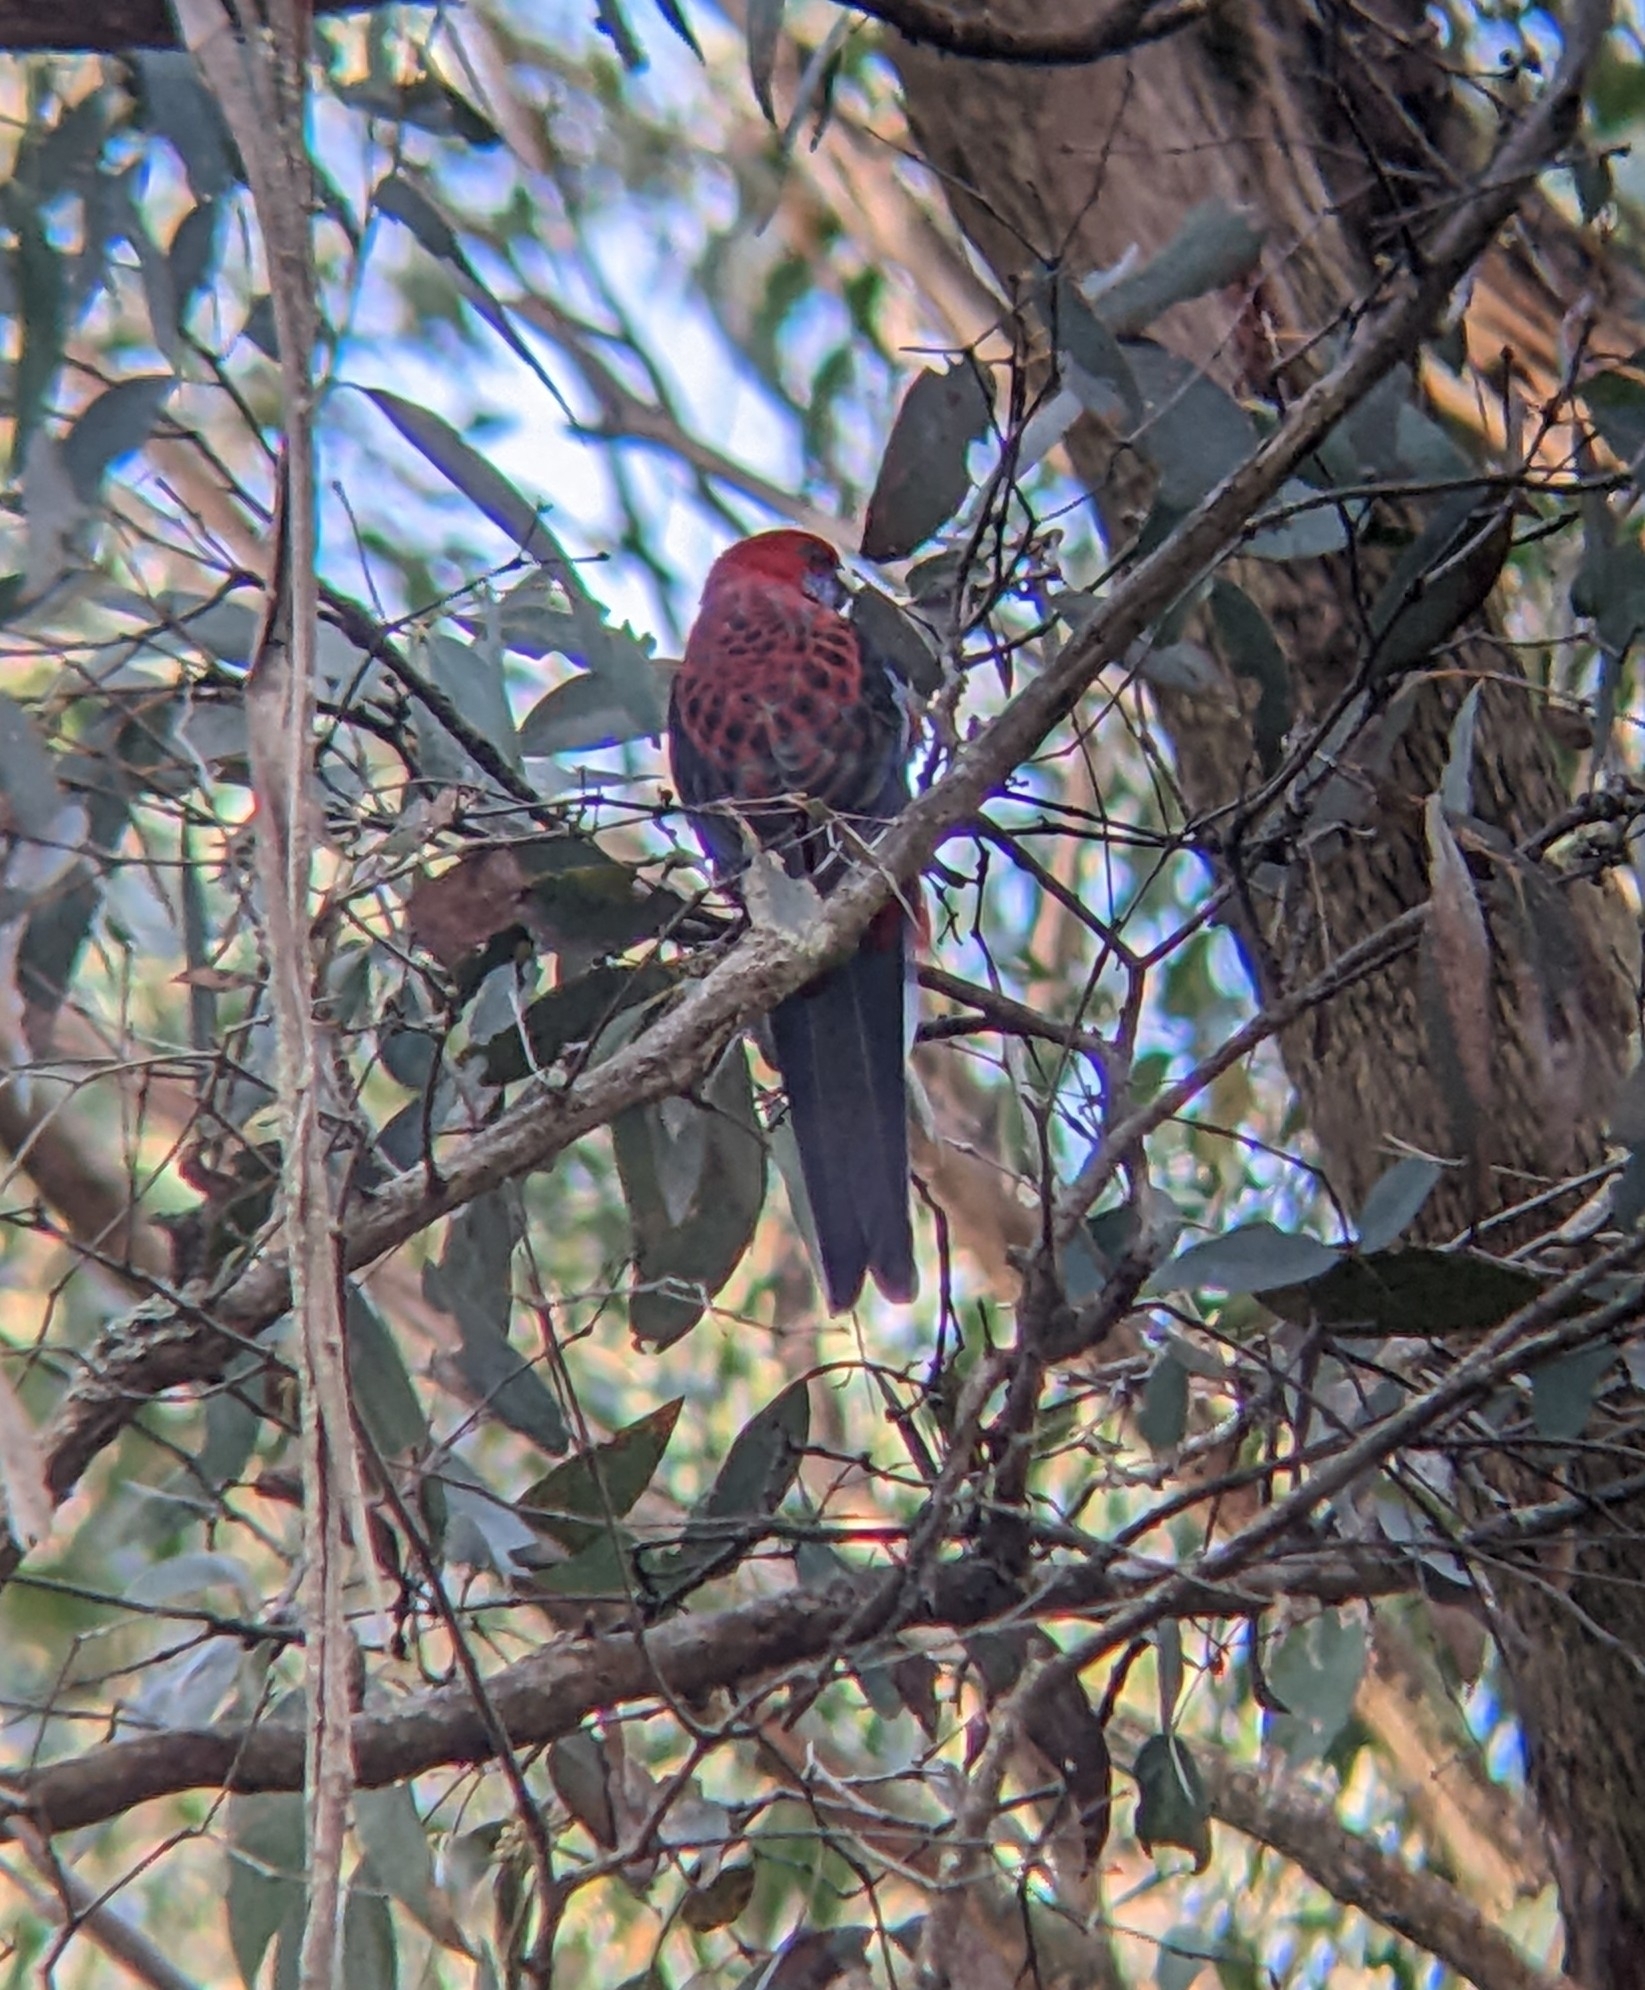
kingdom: Animalia
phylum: Chordata
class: Aves
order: Psittaciformes
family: Psittacidae
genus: Platycercus
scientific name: Platycercus elegans
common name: Crimson rosella
